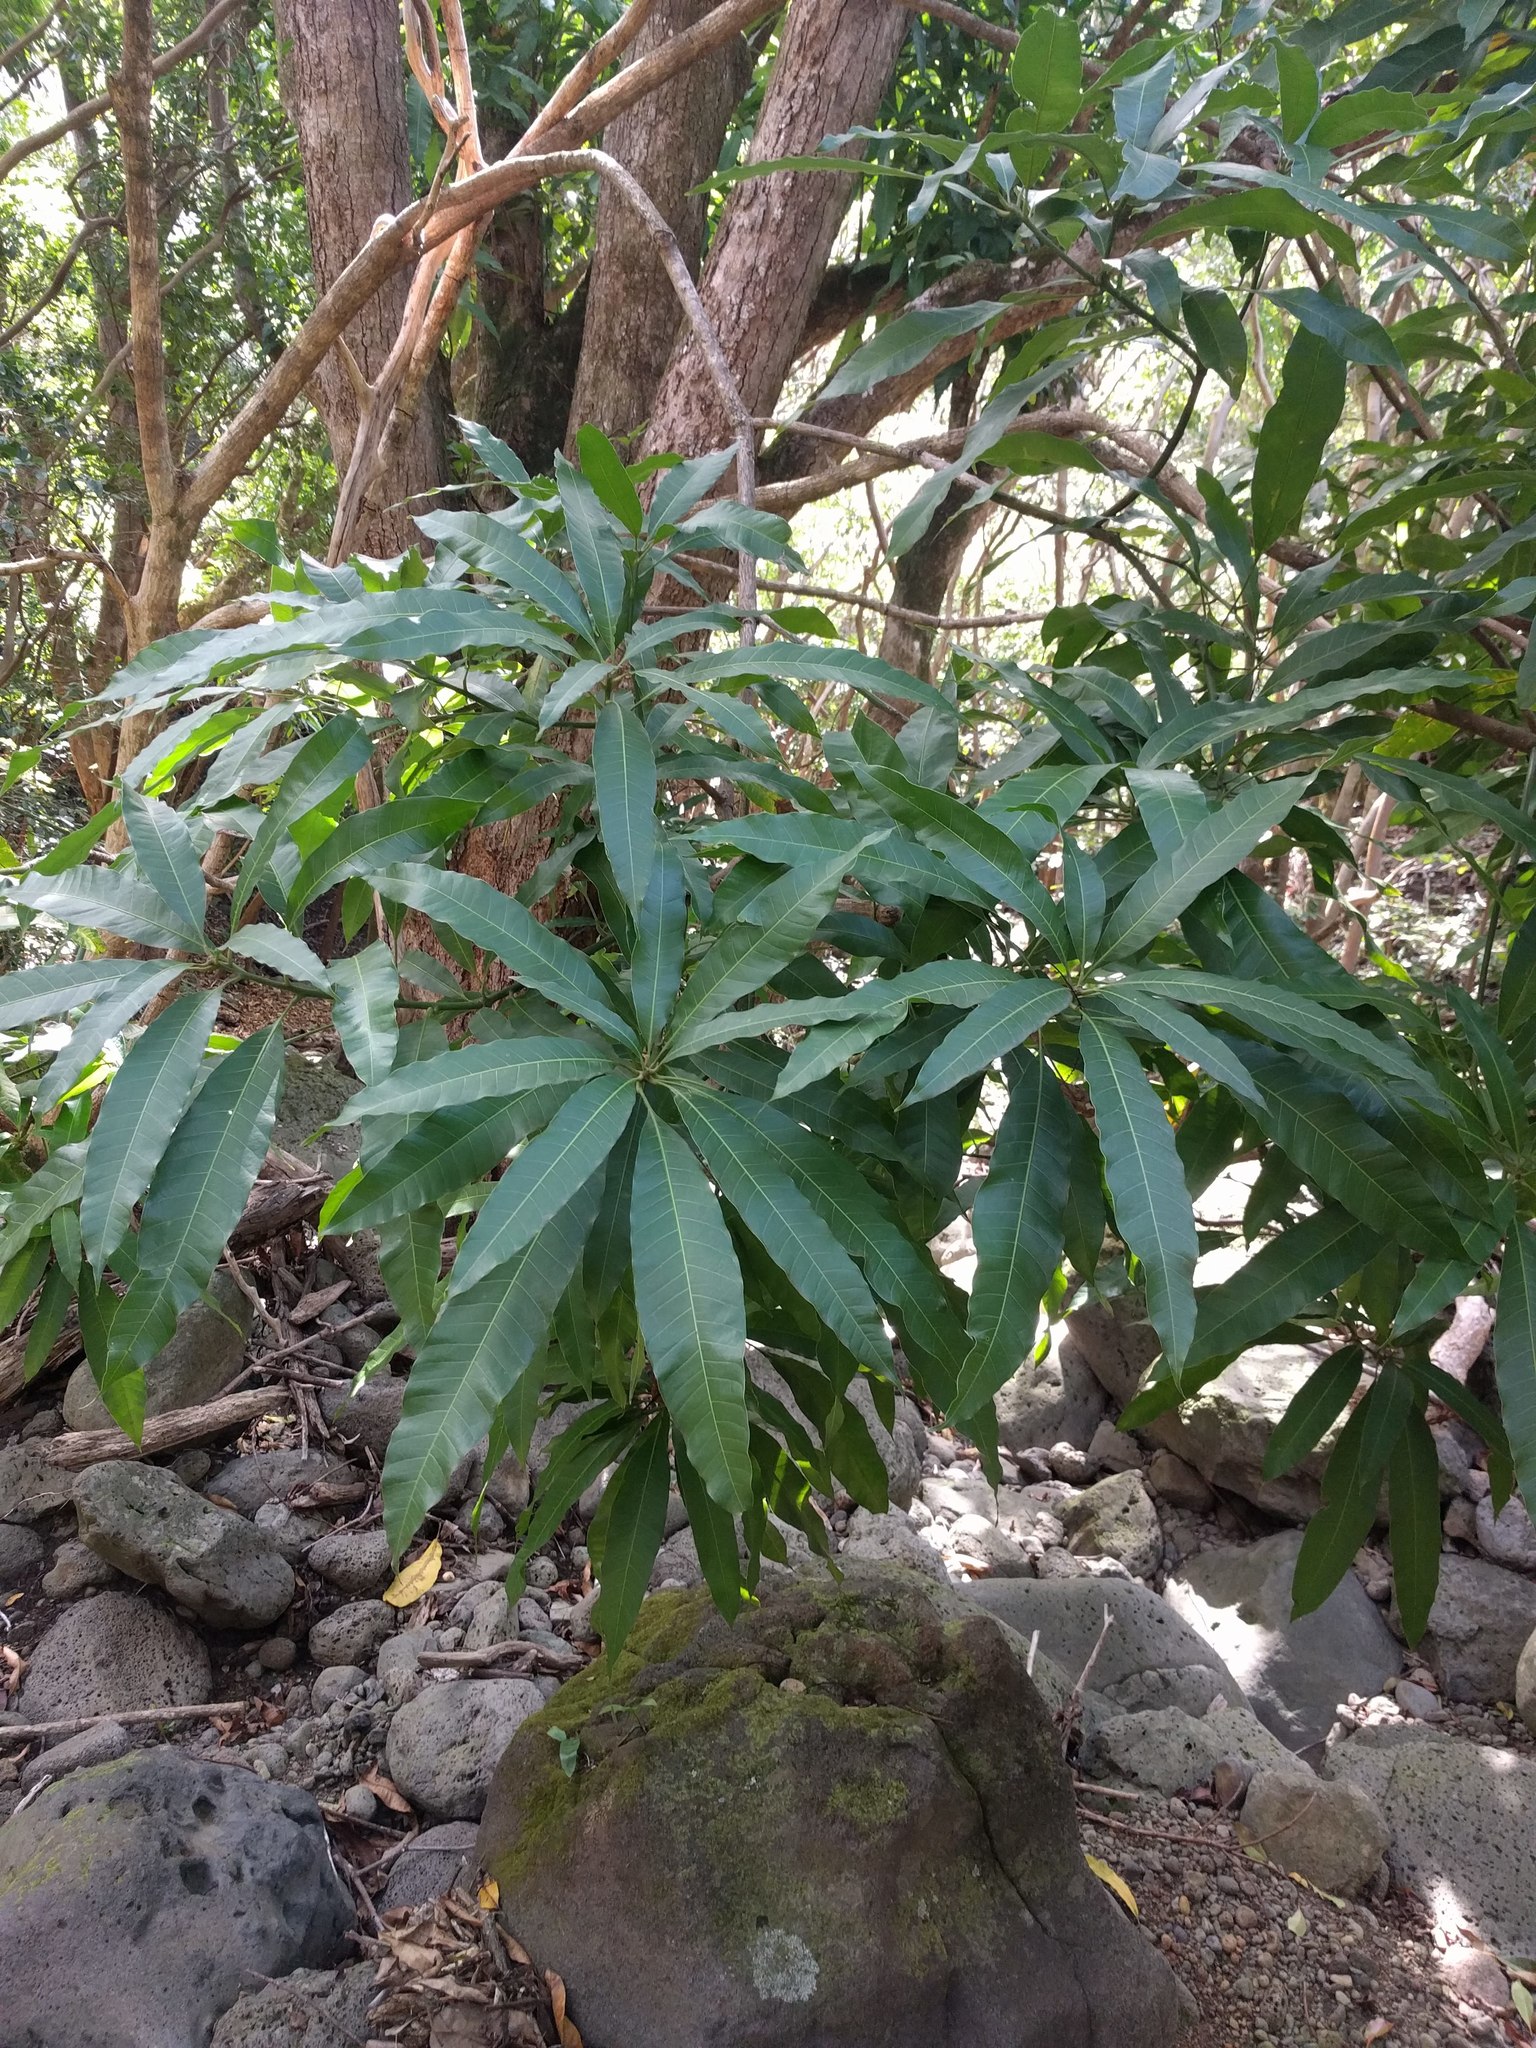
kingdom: Plantae
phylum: Tracheophyta
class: Magnoliopsida
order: Sapindales
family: Anacardiaceae
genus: Mangifera
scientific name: Mangifera indica
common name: Mango
